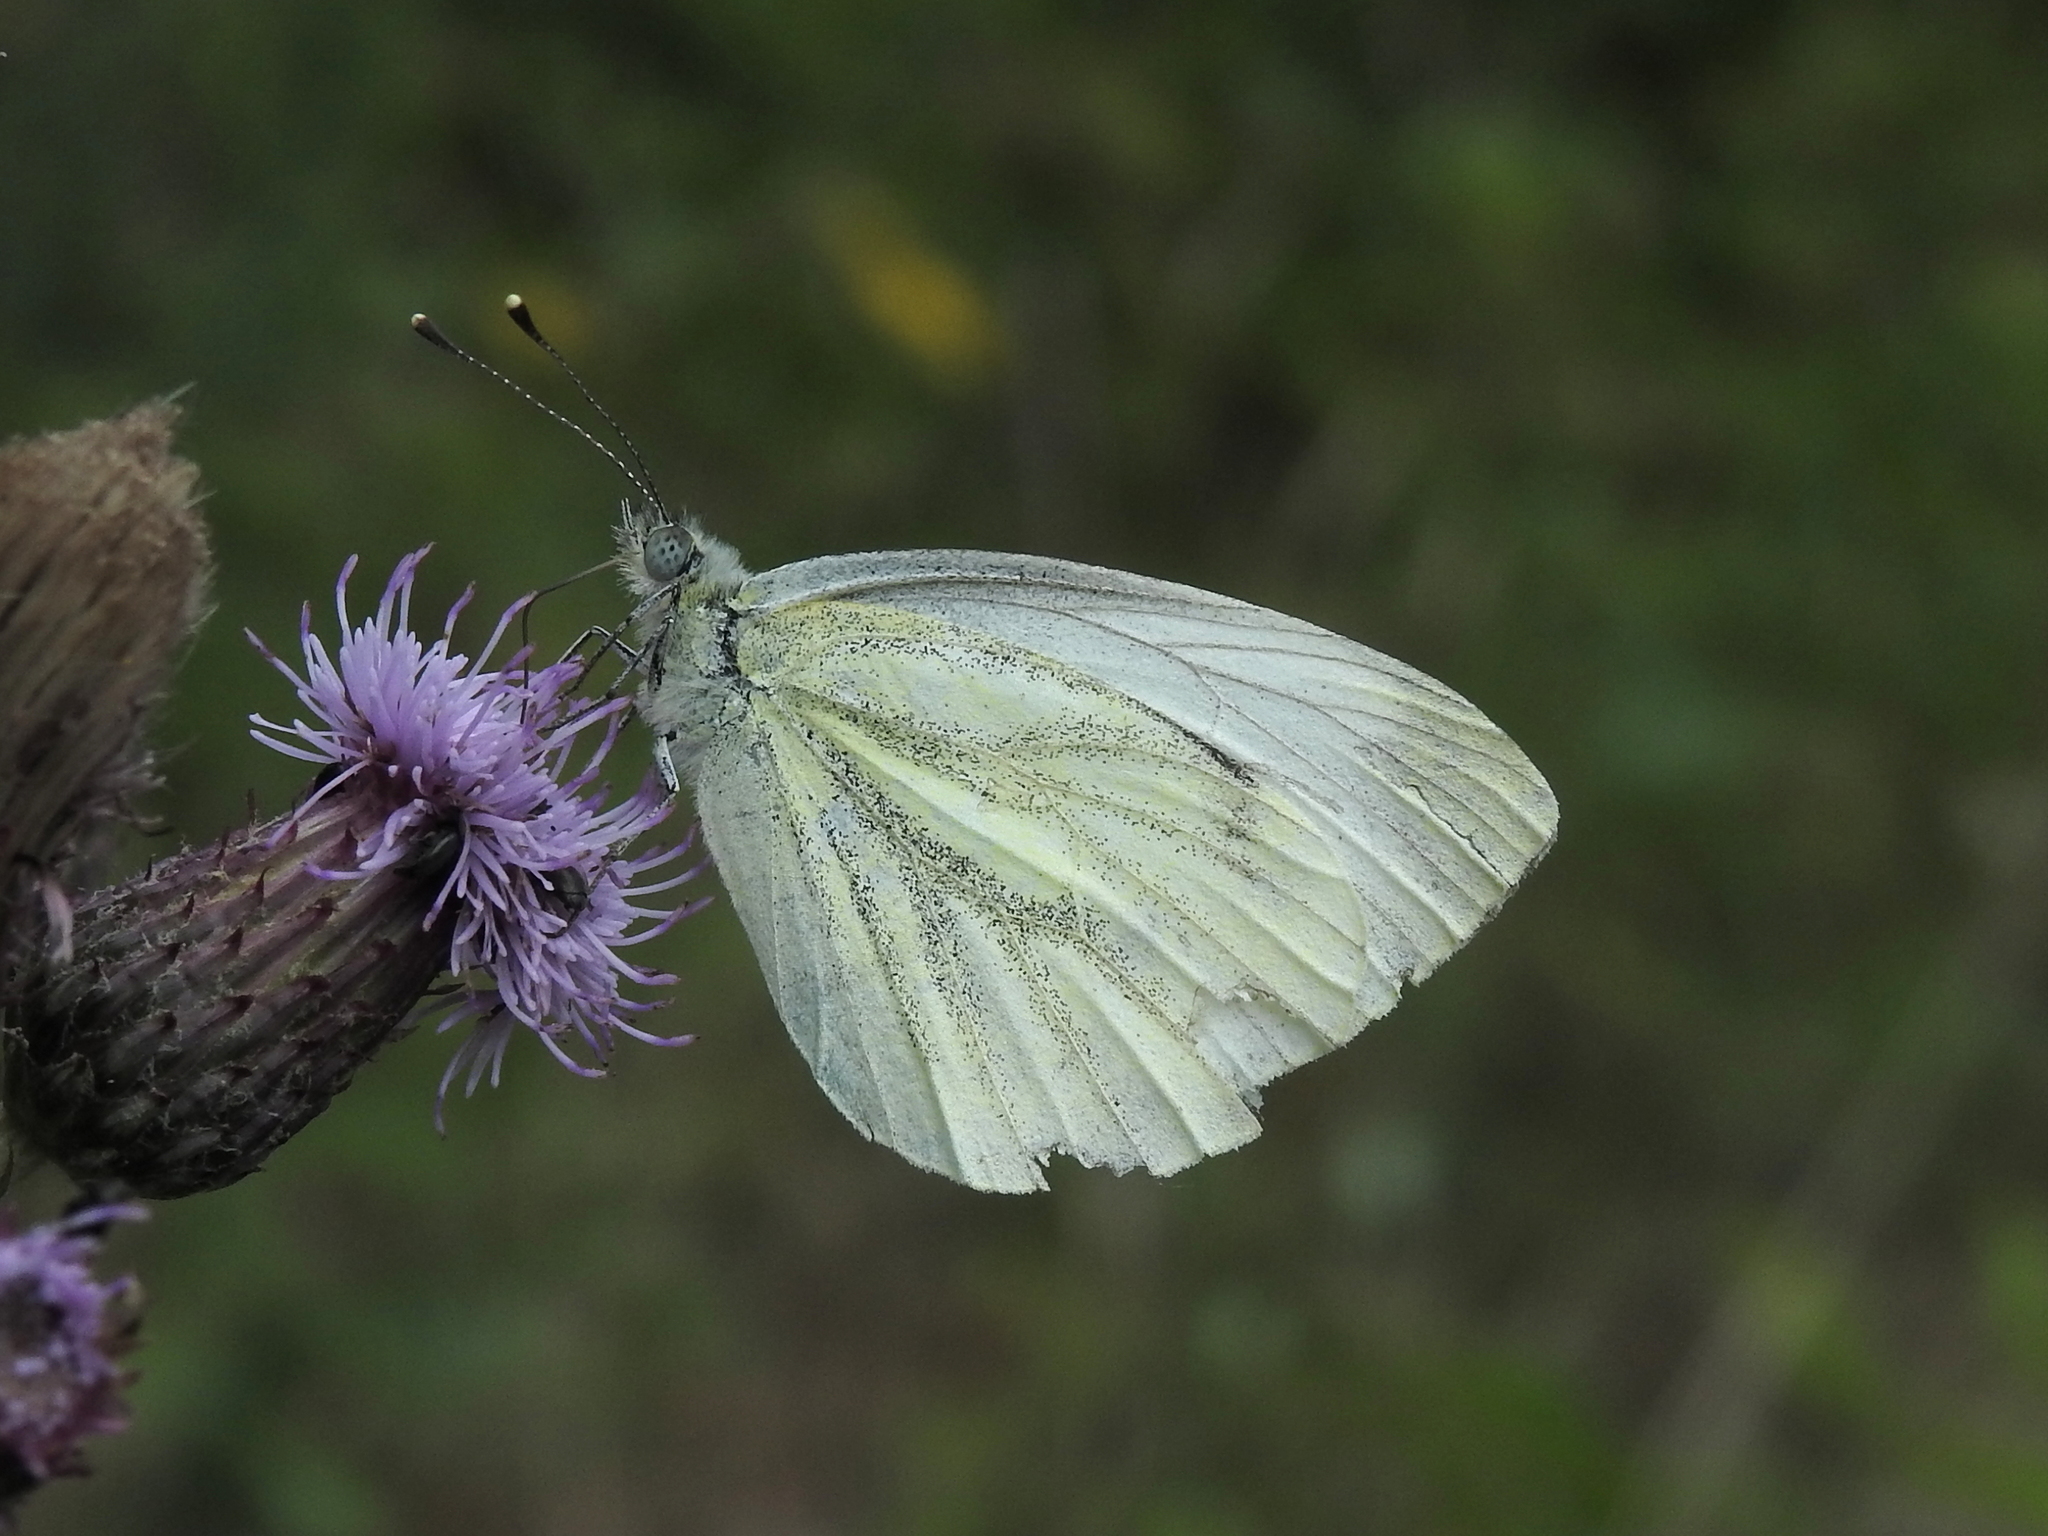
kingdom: Animalia
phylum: Arthropoda
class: Insecta
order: Lepidoptera
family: Pieridae
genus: Pieris
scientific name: Pieris napi
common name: Green-veined white
